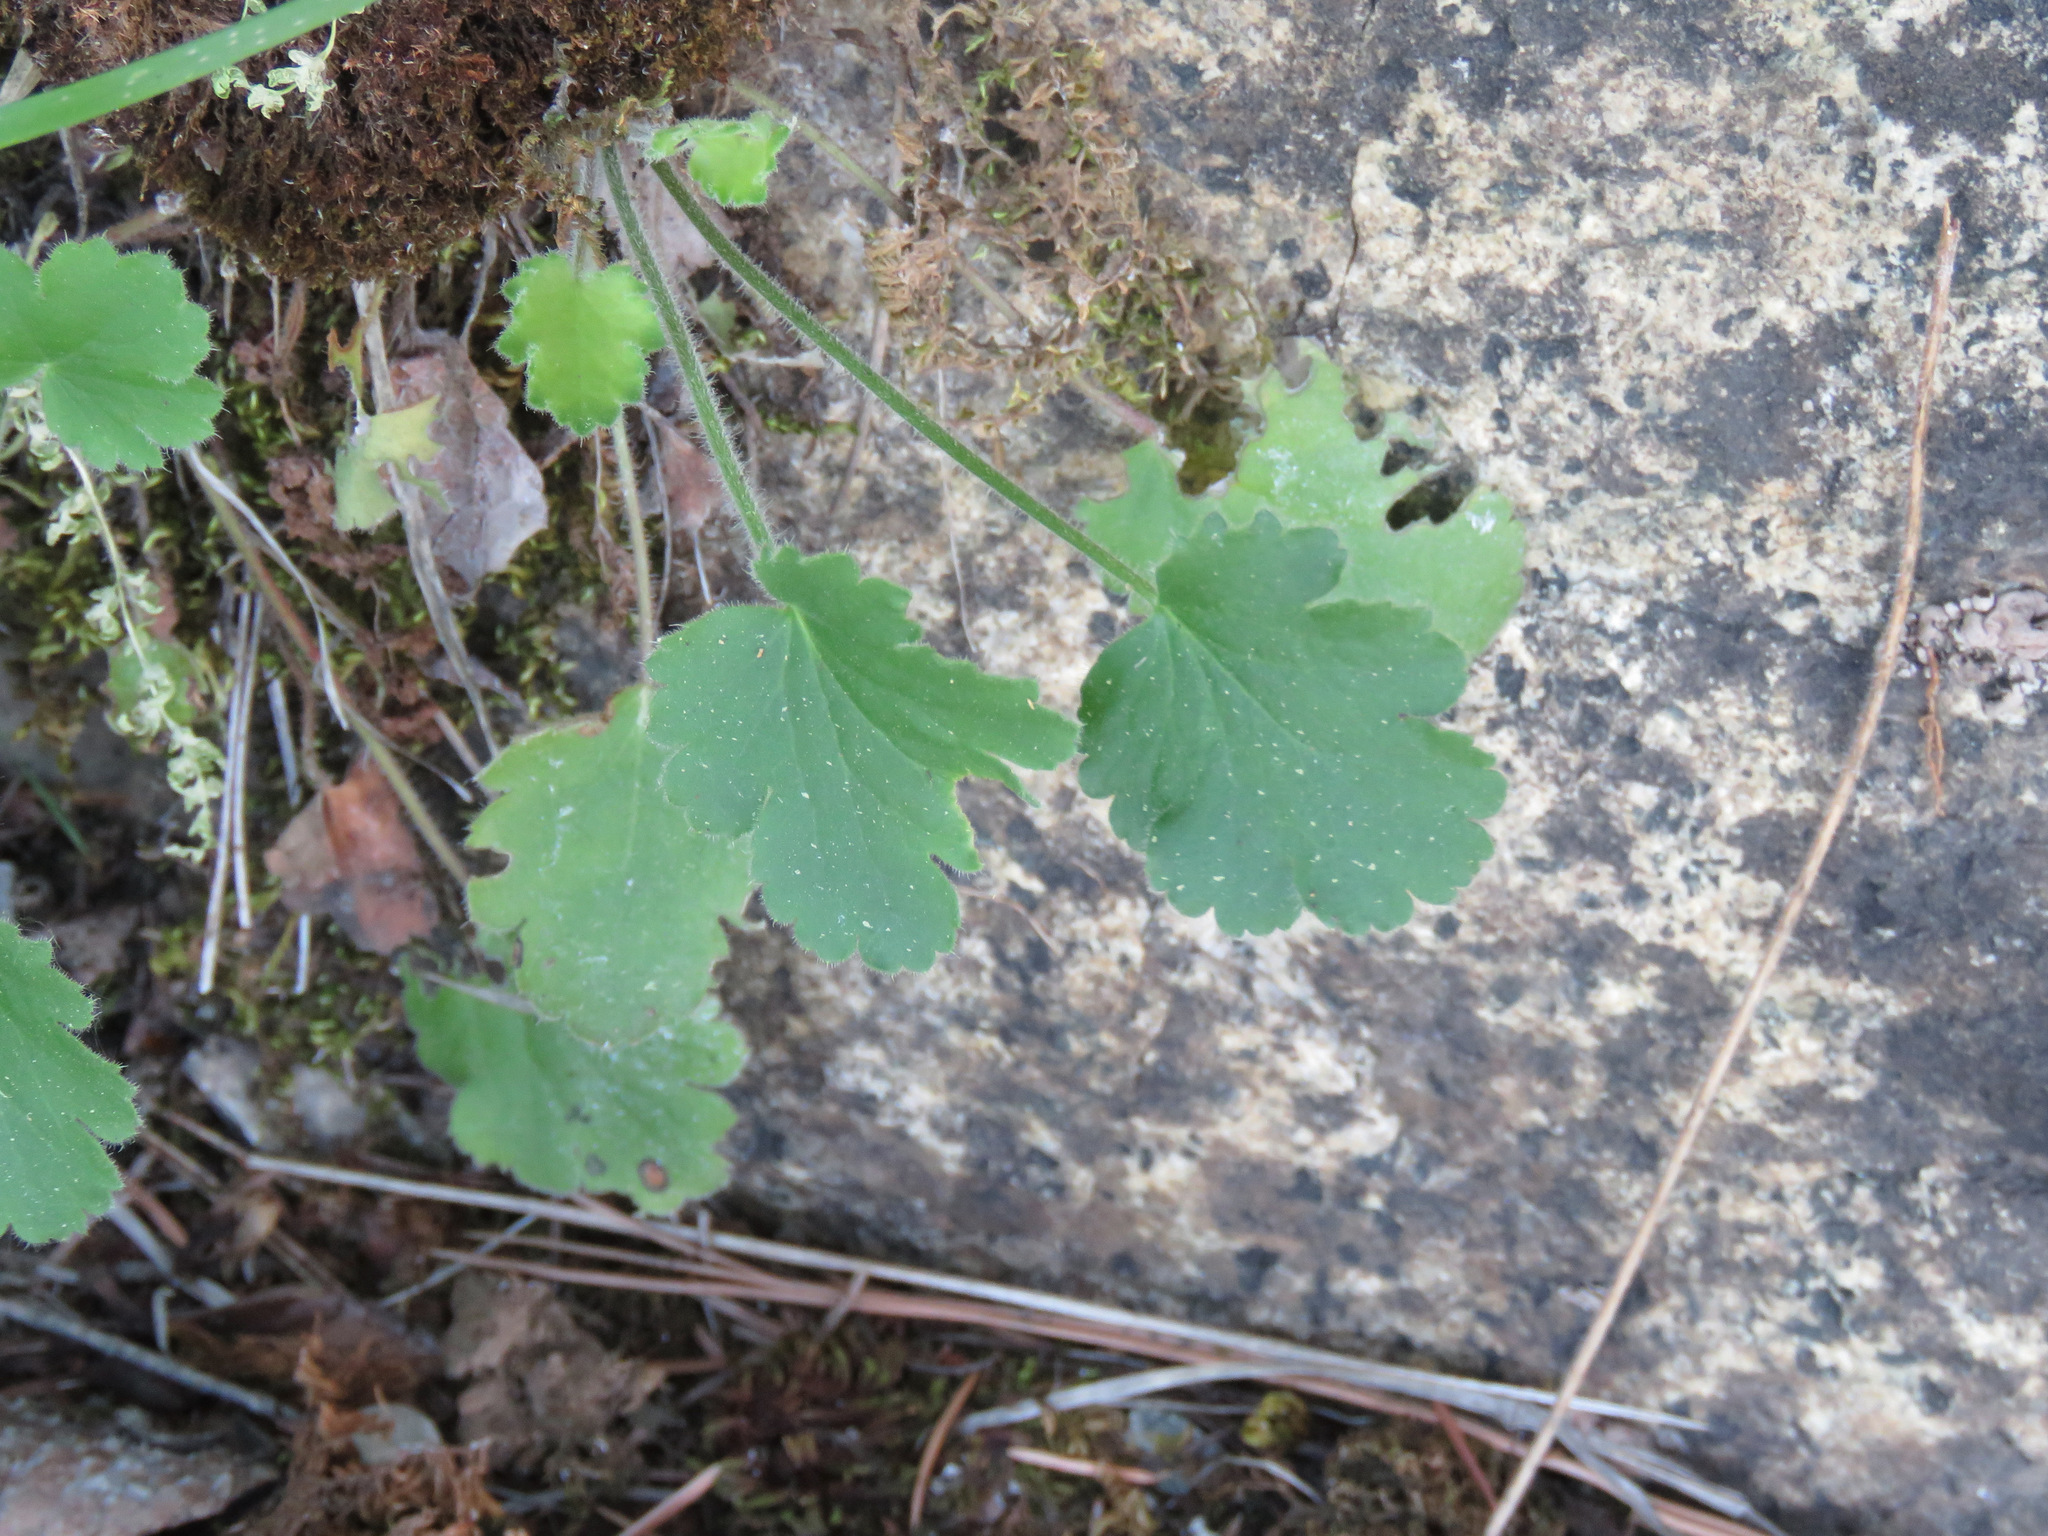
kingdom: Plantae
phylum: Tracheophyta
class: Magnoliopsida
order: Saxifragales
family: Saxifragaceae
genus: Heuchera
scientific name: Heuchera cylindrica
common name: Mat alumroot
